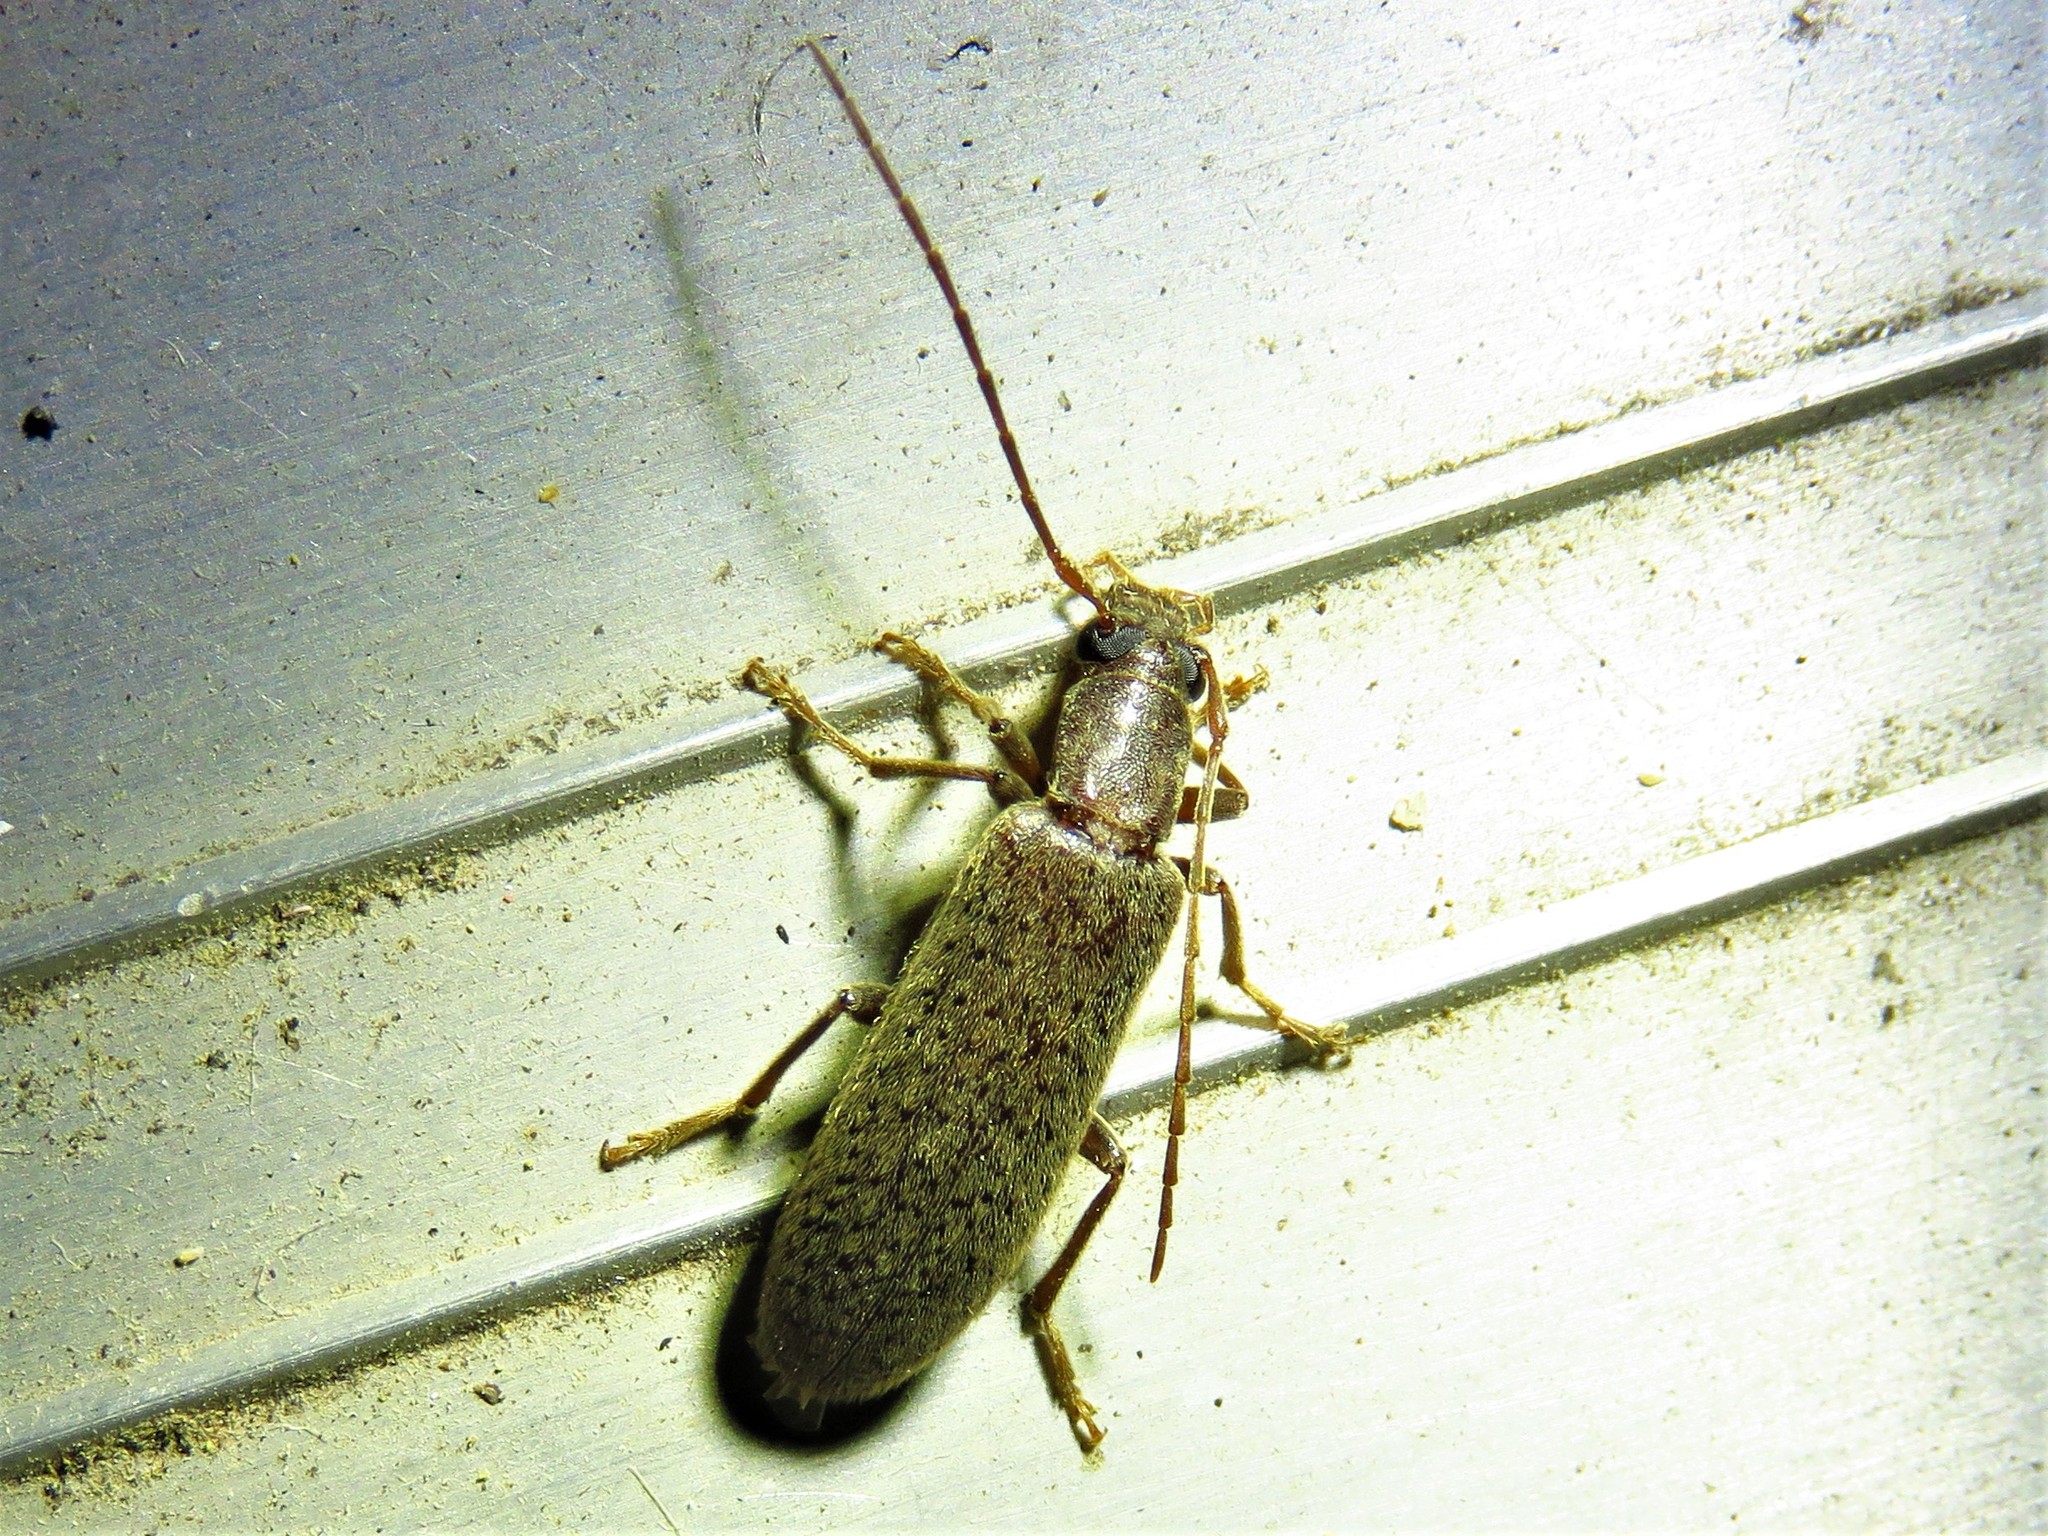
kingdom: Animalia
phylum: Arthropoda
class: Insecta
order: Coleoptera
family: Oedemeridae
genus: Sparedrus
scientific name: Sparedrus aspersus
